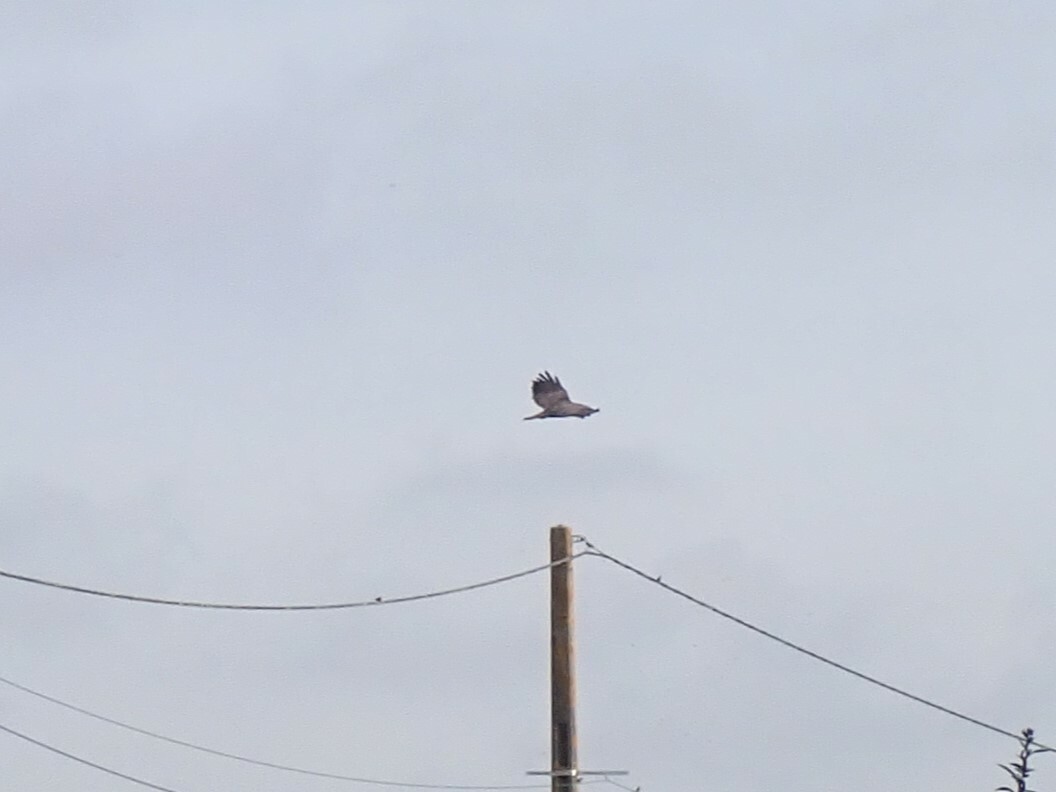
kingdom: Animalia
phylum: Chordata
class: Aves
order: Accipitriformes
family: Accipitridae
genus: Buteo
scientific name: Buteo buteo
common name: Common buzzard
